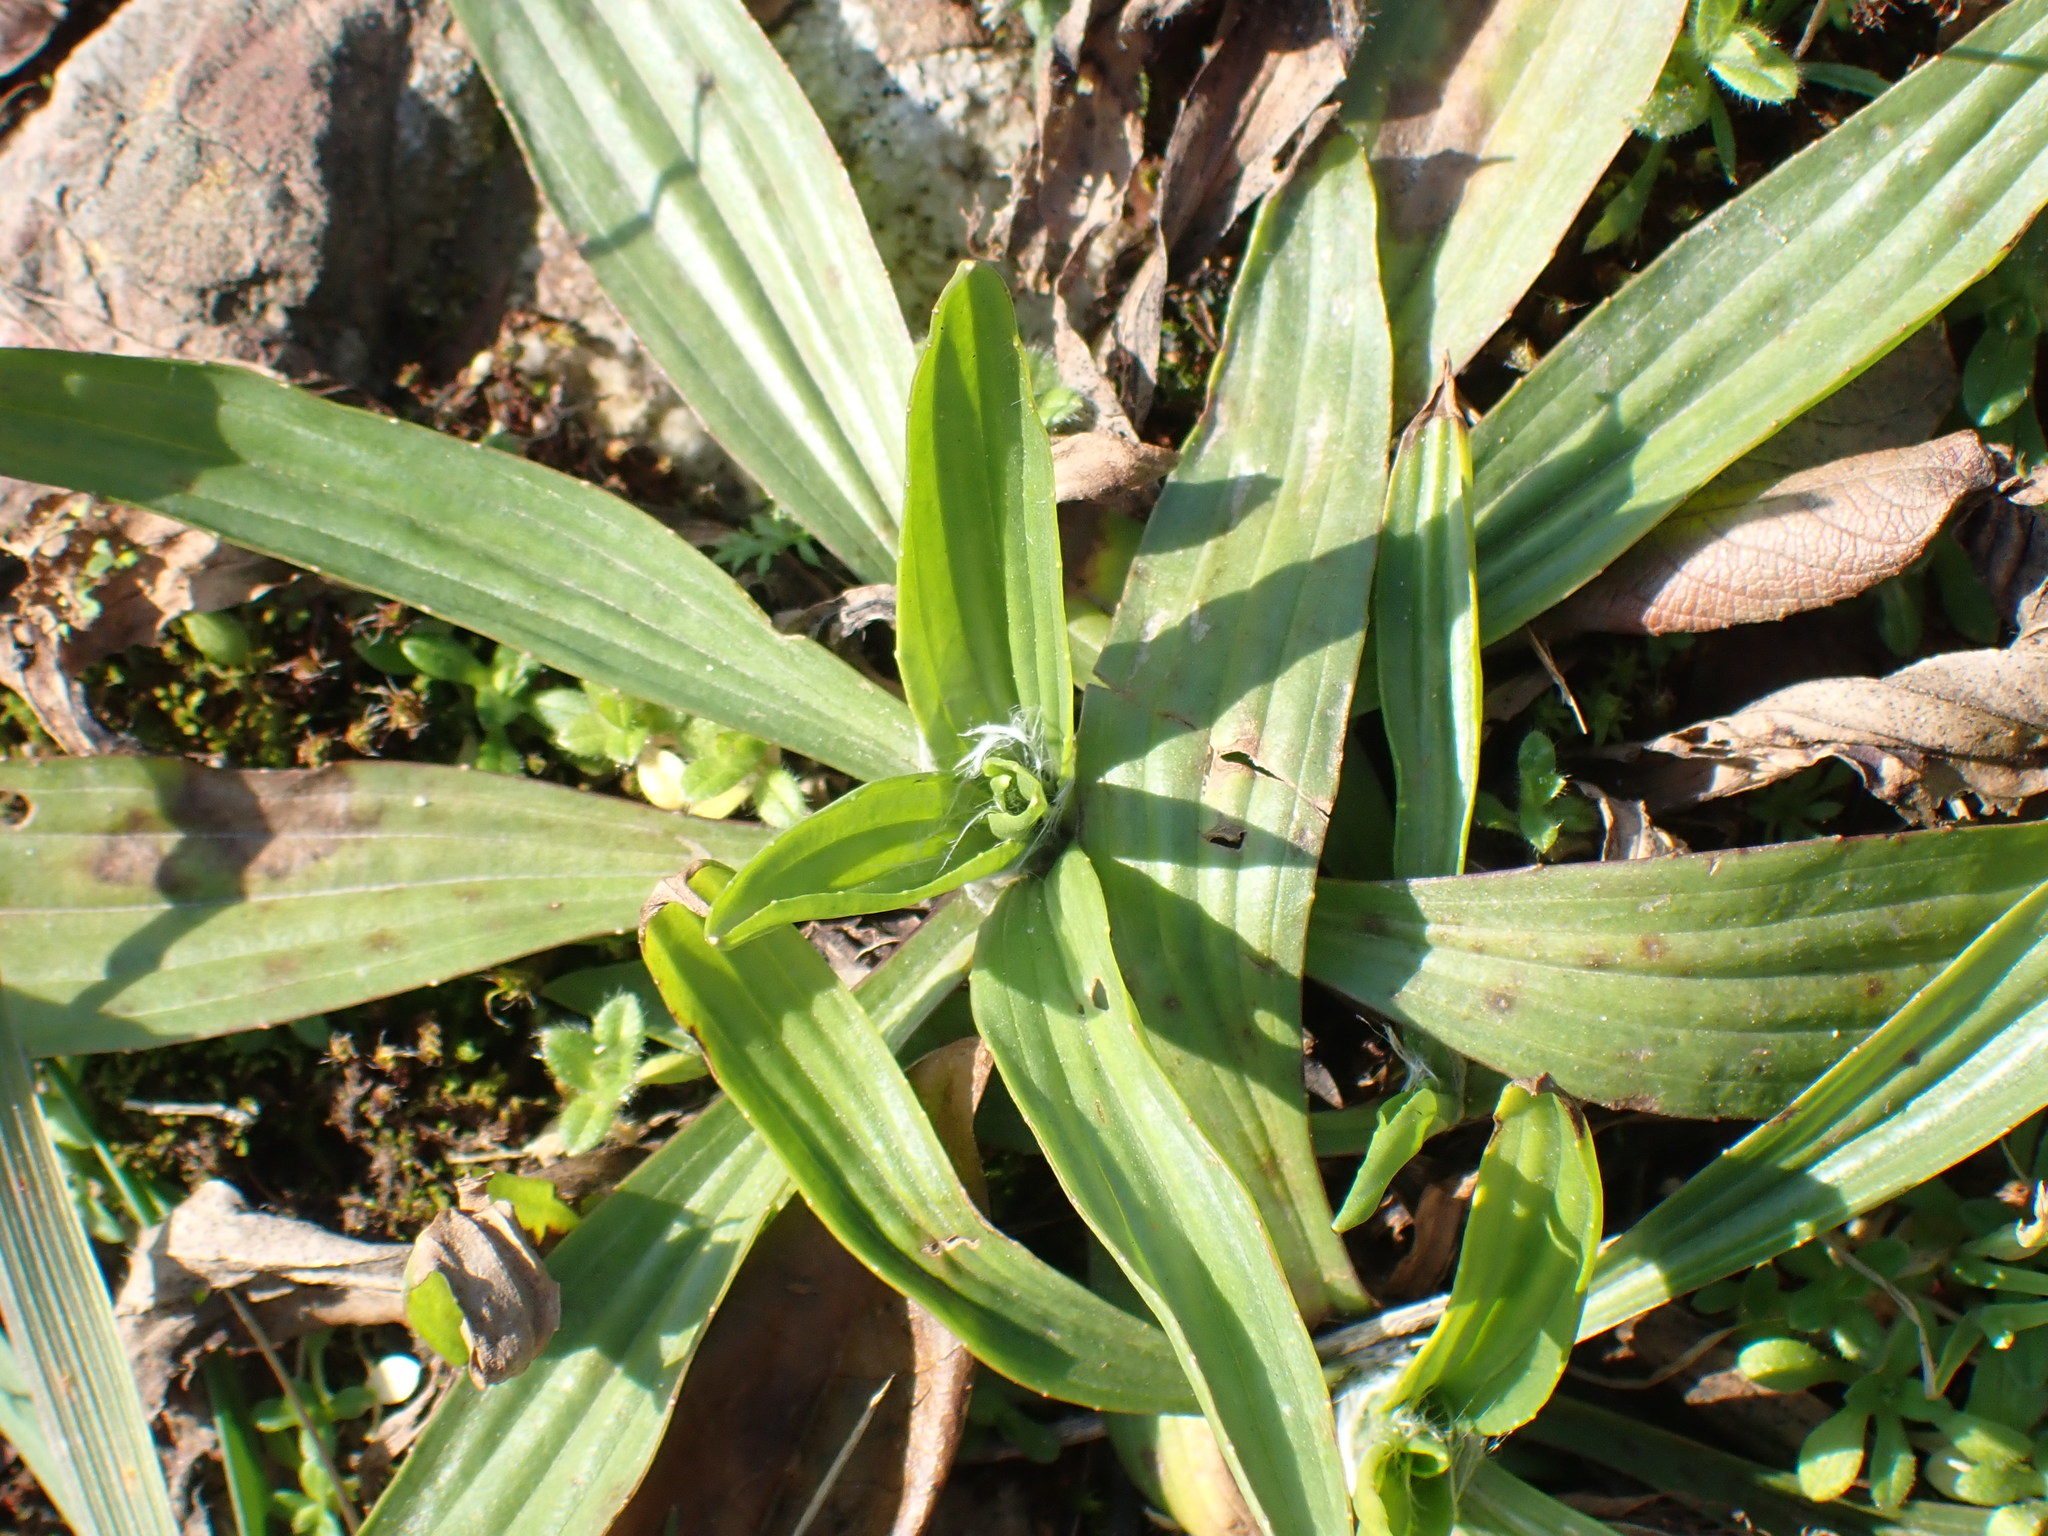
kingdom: Plantae
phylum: Tracheophyta
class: Magnoliopsida
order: Lamiales
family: Plantaginaceae
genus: Plantago
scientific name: Plantago lanceolata
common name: Ribwort plantain
